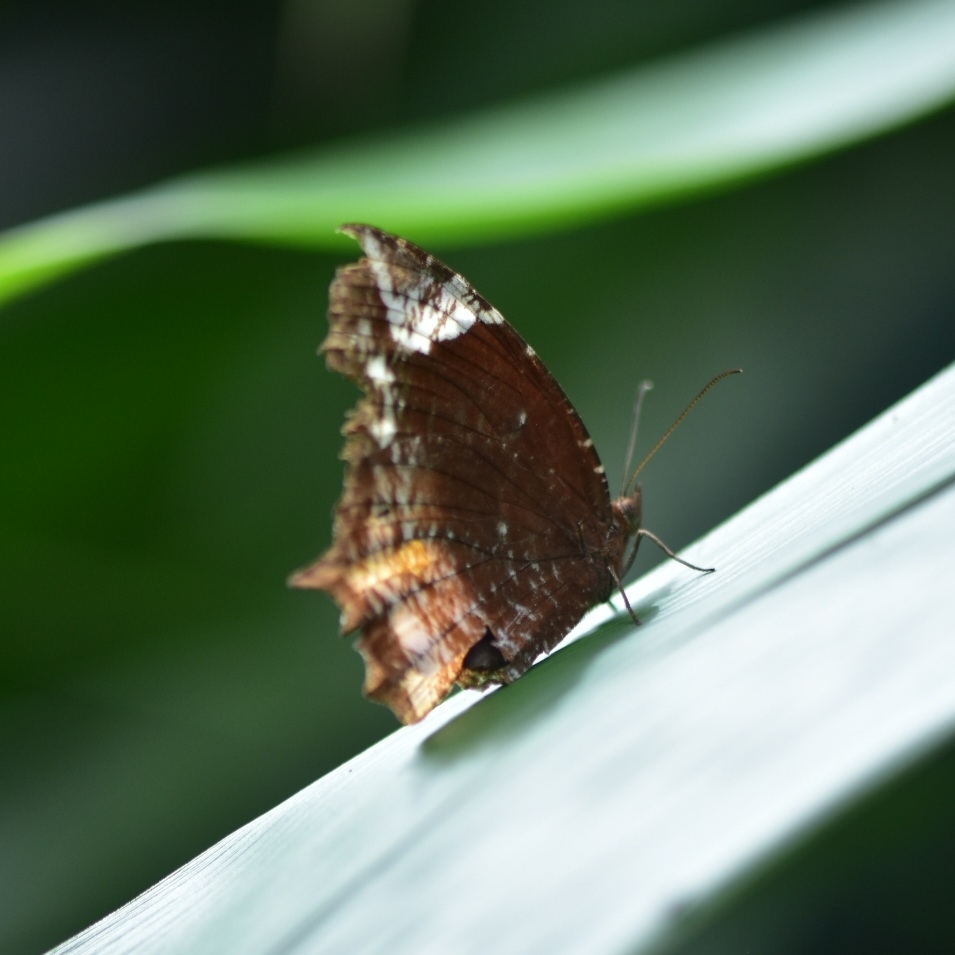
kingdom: Animalia
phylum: Arthropoda
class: Insecta
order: Lepidoptera
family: Nymphalidae
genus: Elymnias
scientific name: Elymnias caudata
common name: Tailed palmfly
